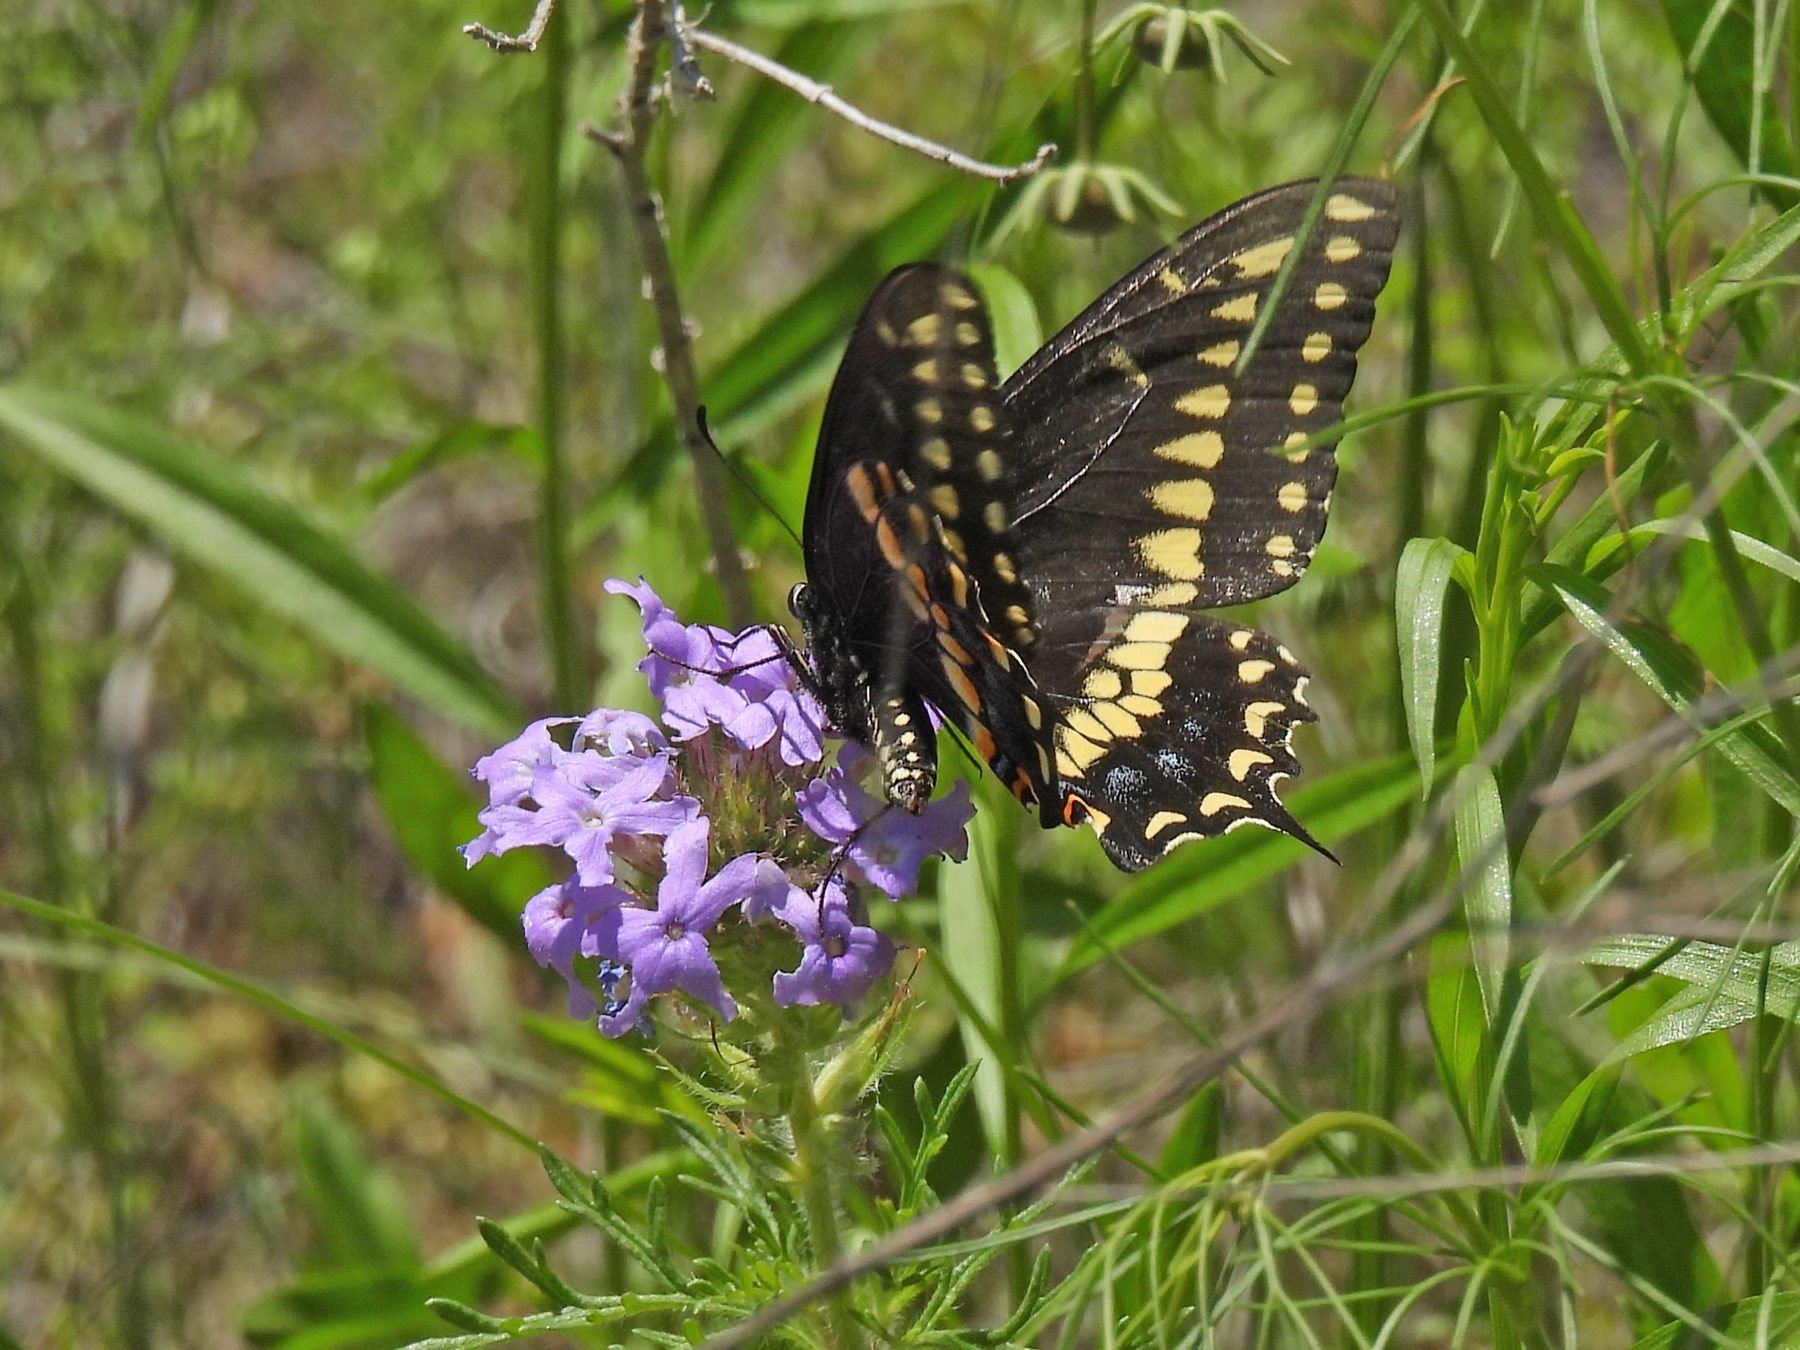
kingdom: Animalia
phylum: Arthropoda
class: Insecta
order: Lepidoptera
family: Papilionidae
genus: Papilio
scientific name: Papilio polyxenes
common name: Black swallowtail
